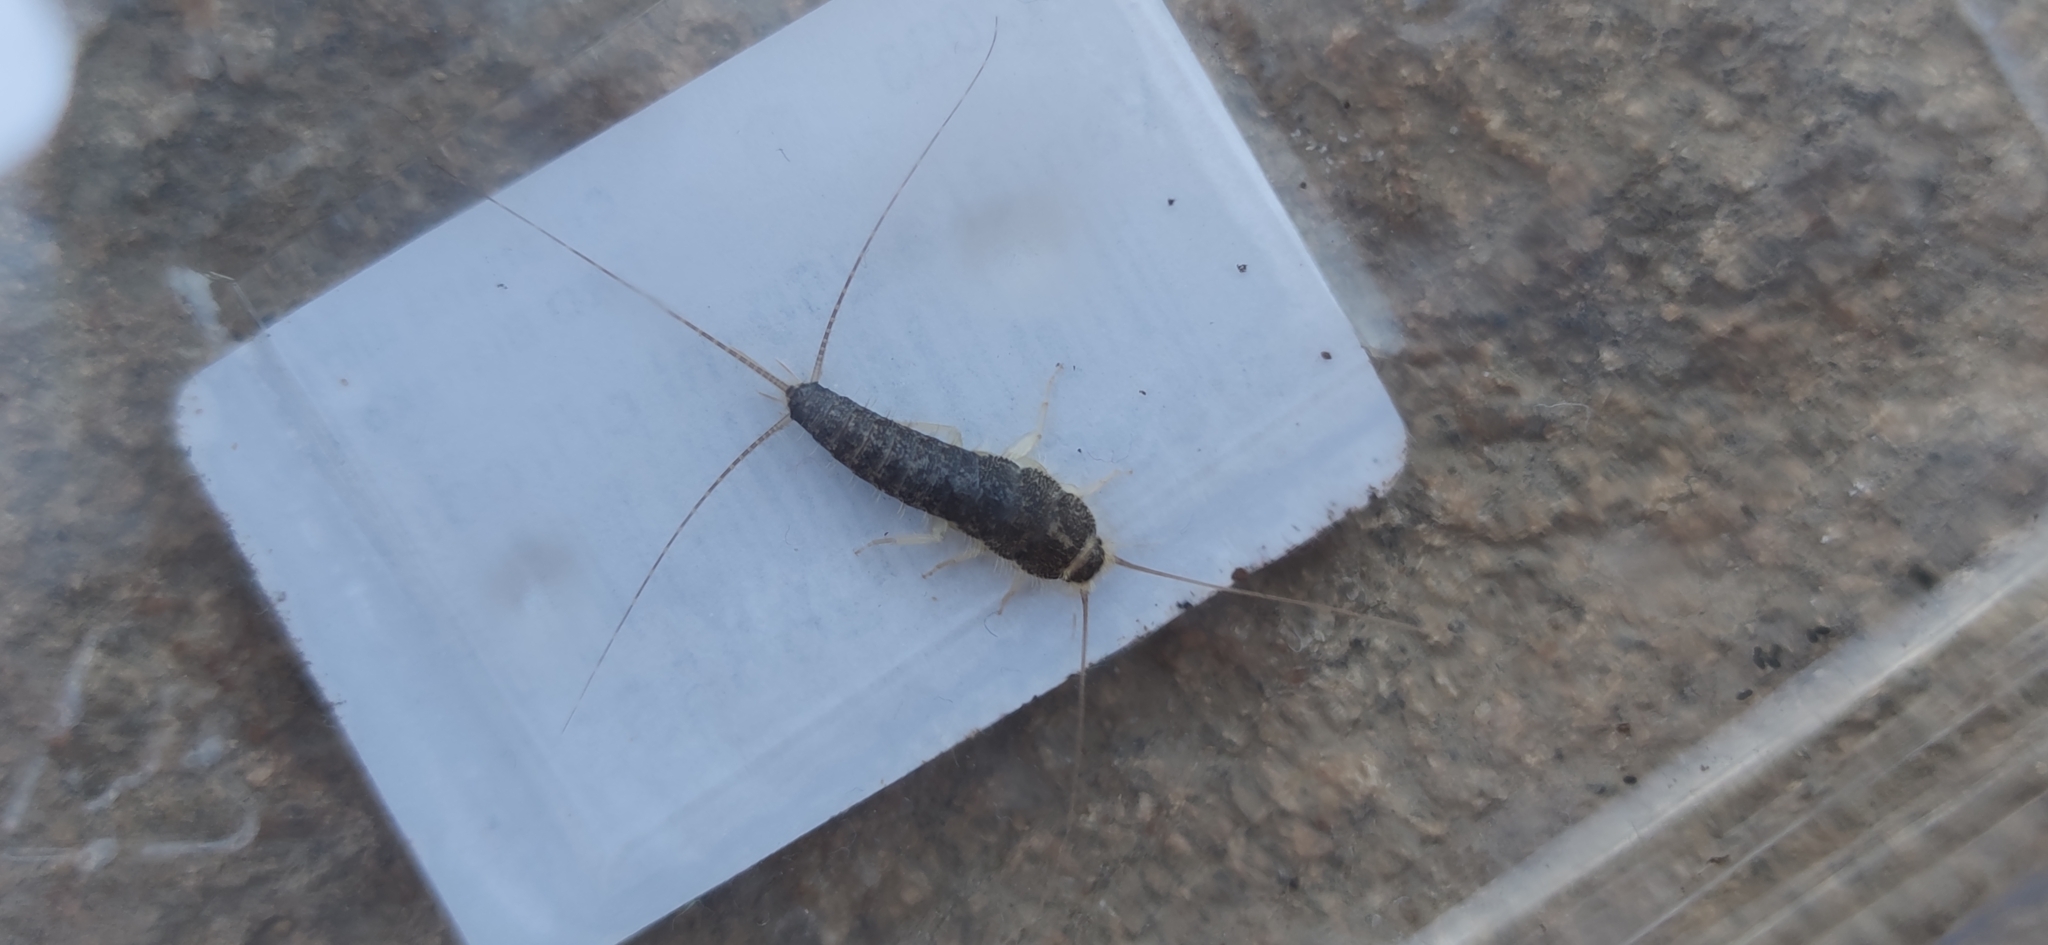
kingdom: Animalia
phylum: Arthropoda
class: Insecta
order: Zygentoma
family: Lepismatidae
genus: Ctenolepisma
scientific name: Ctenolepisma longicaudatum
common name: Silverfish
